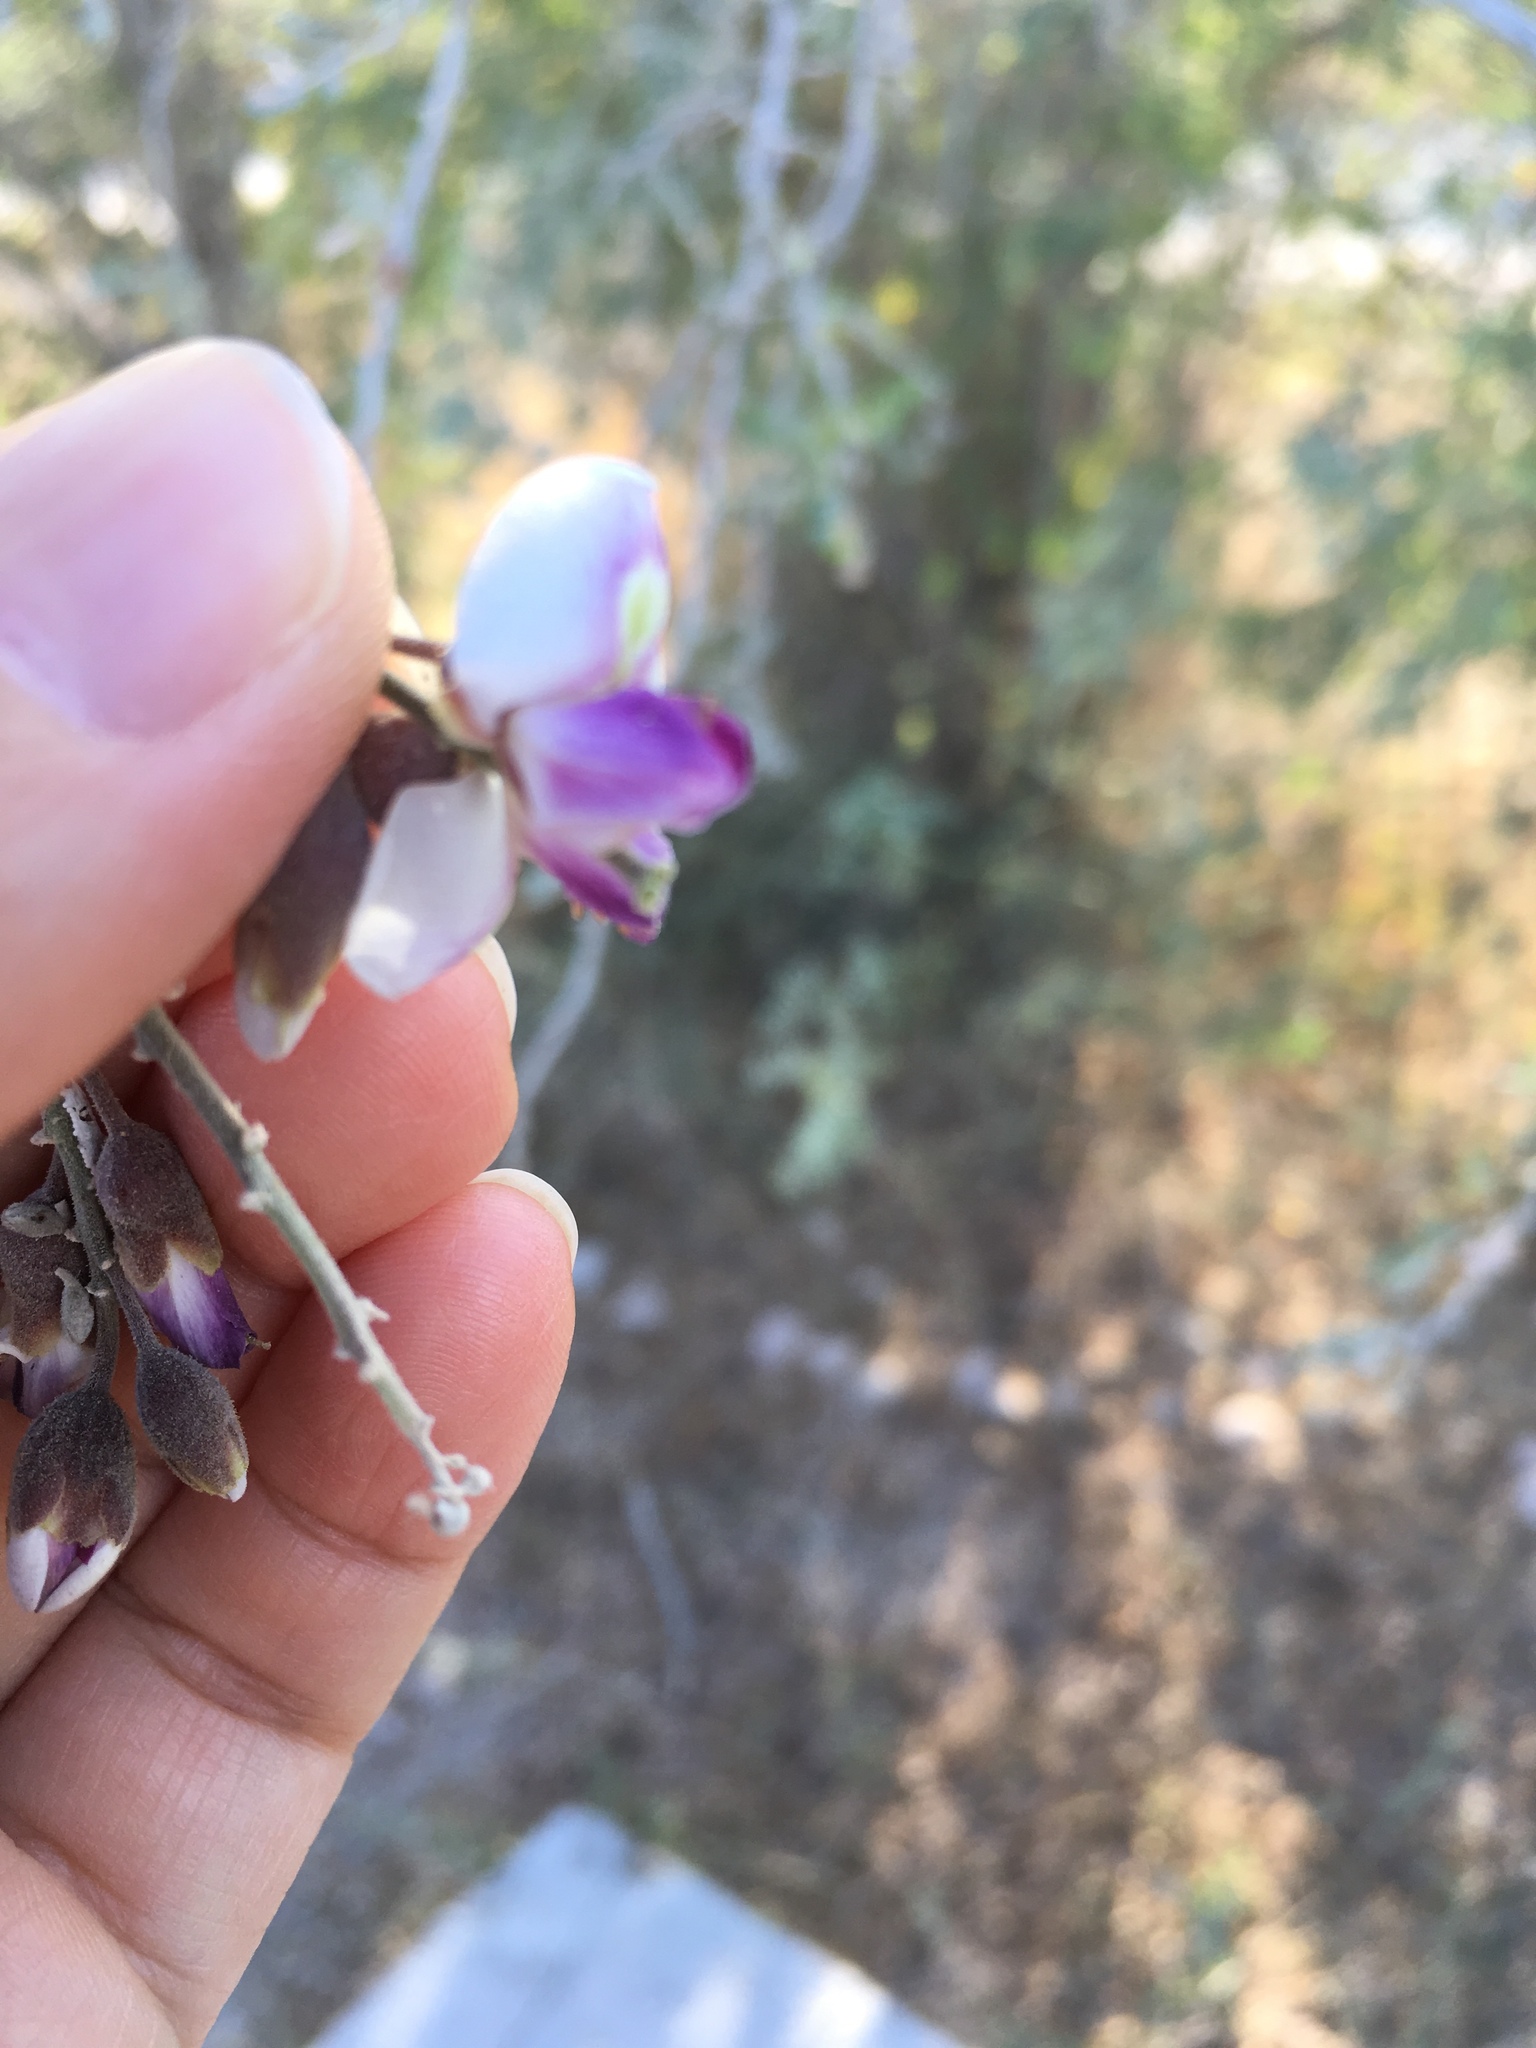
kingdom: Plantae
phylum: Tracheophyta
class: Magnoliopsida
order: Fabales
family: Fabaceae
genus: Olneya
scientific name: Olneya tesota
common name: Desert ironwood
